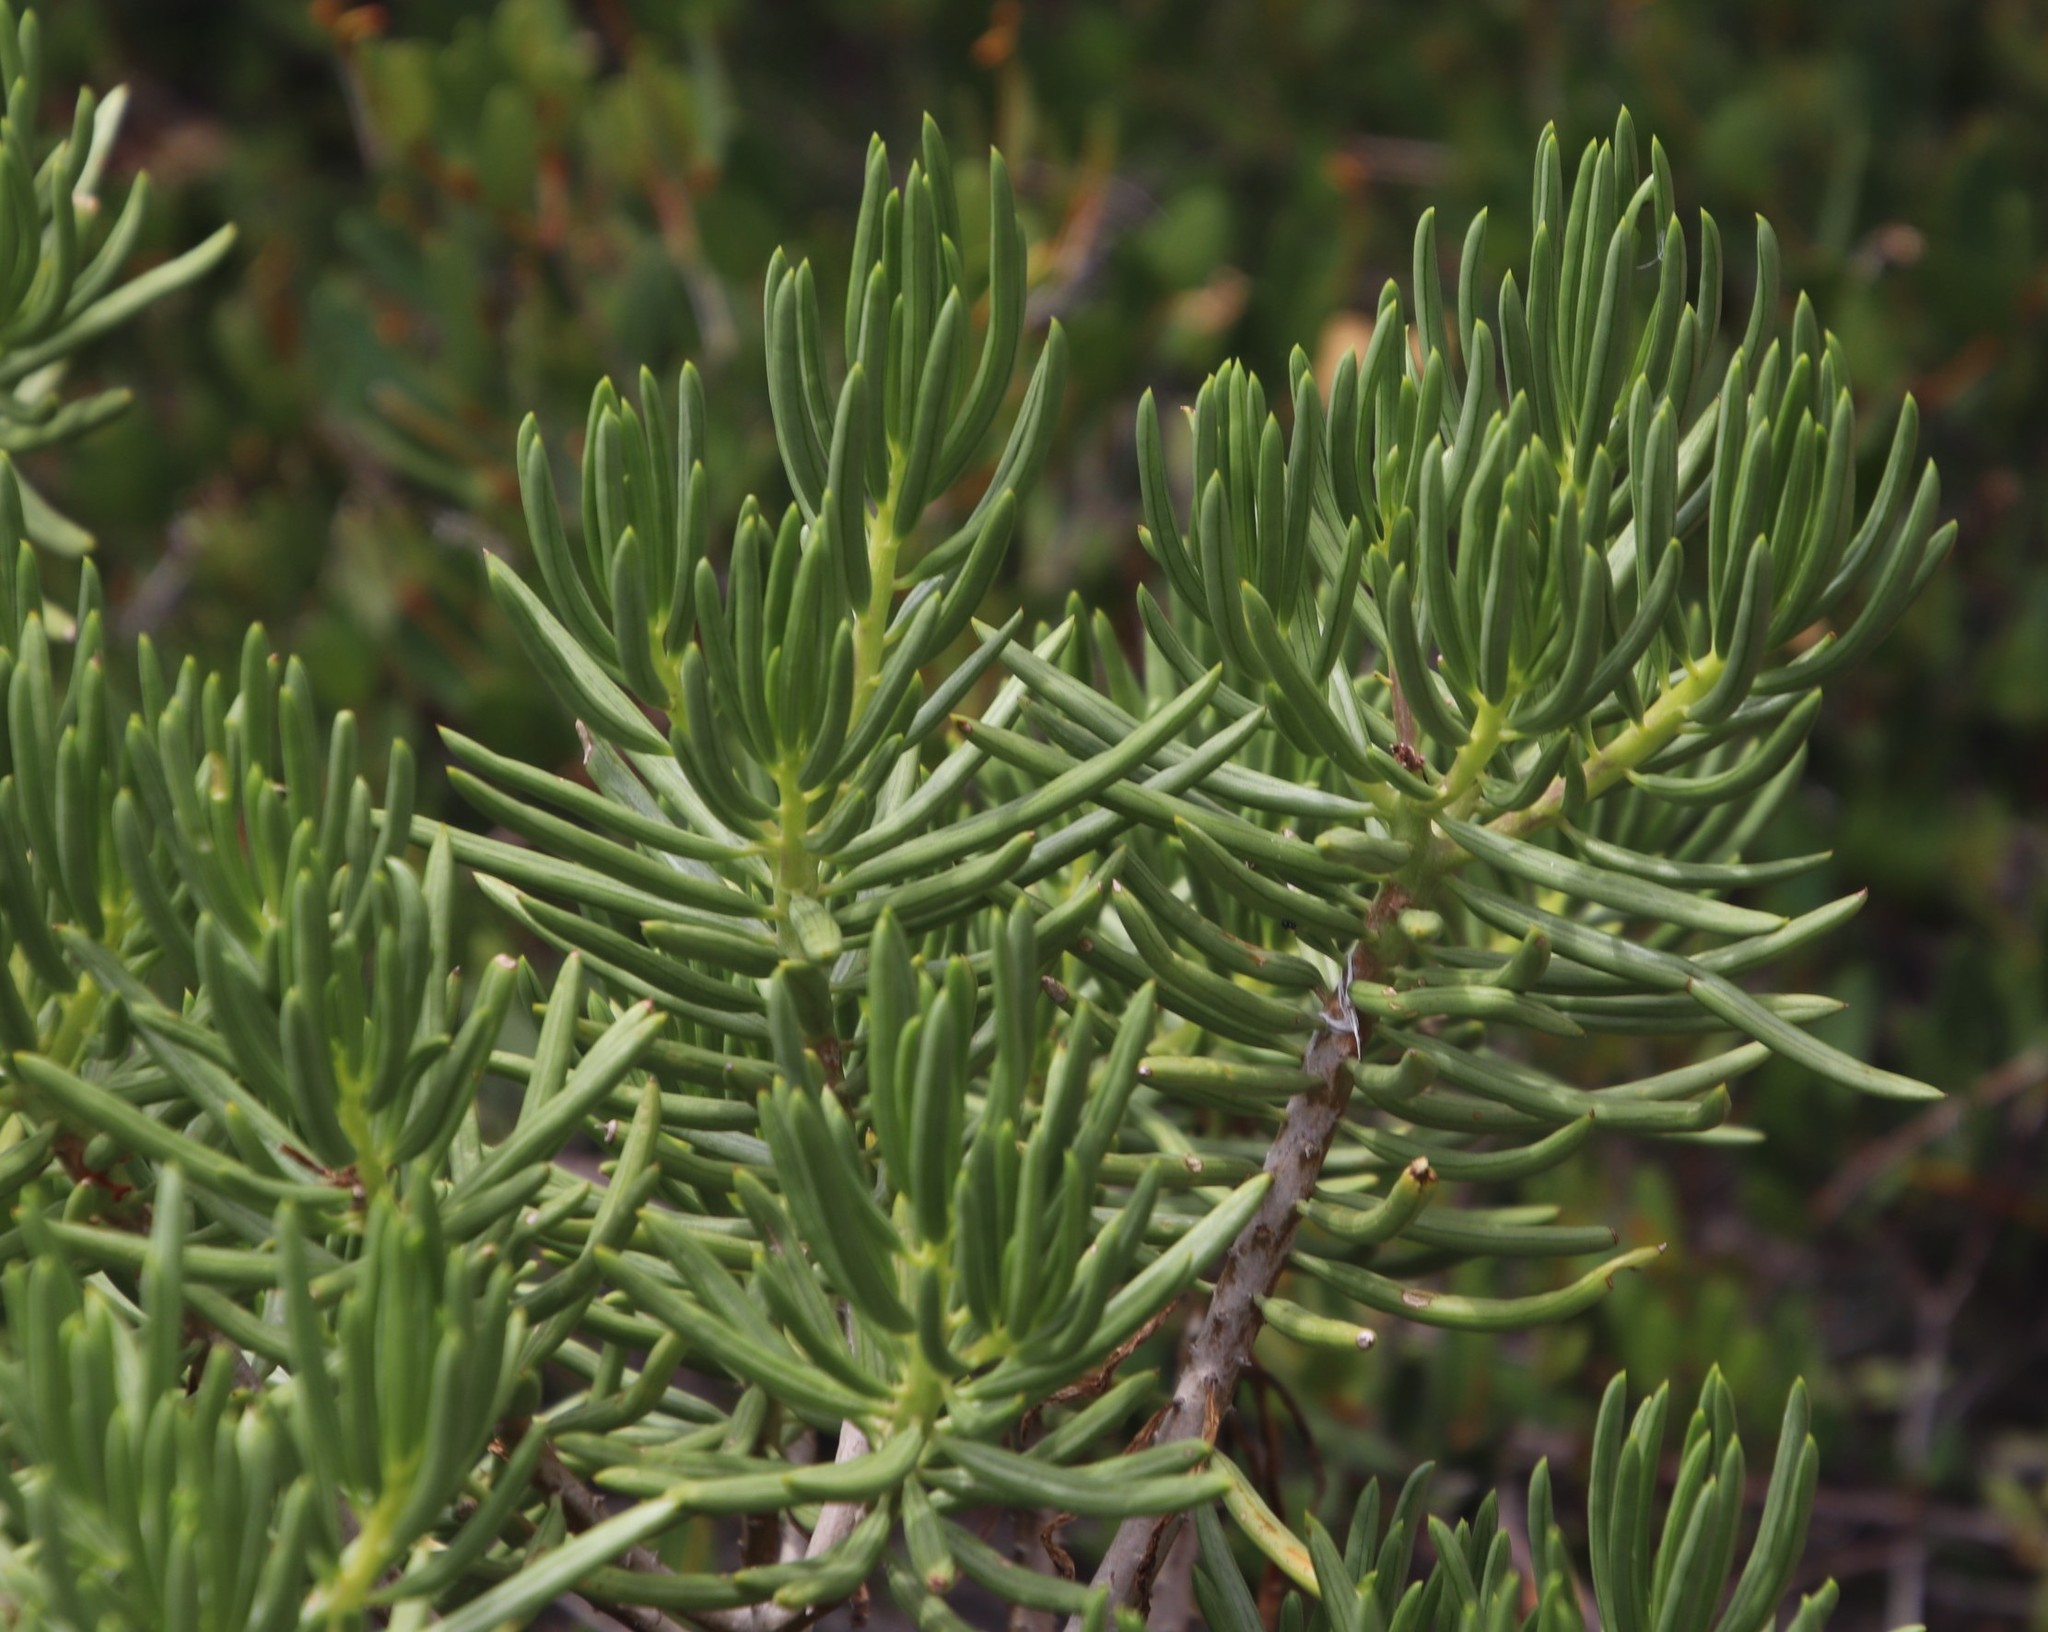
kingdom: Plantae
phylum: Tracheophyta
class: Magnoliopsida
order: Asterales
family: Asteraceae
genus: Kleinia
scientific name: Kleinia barbertonica
